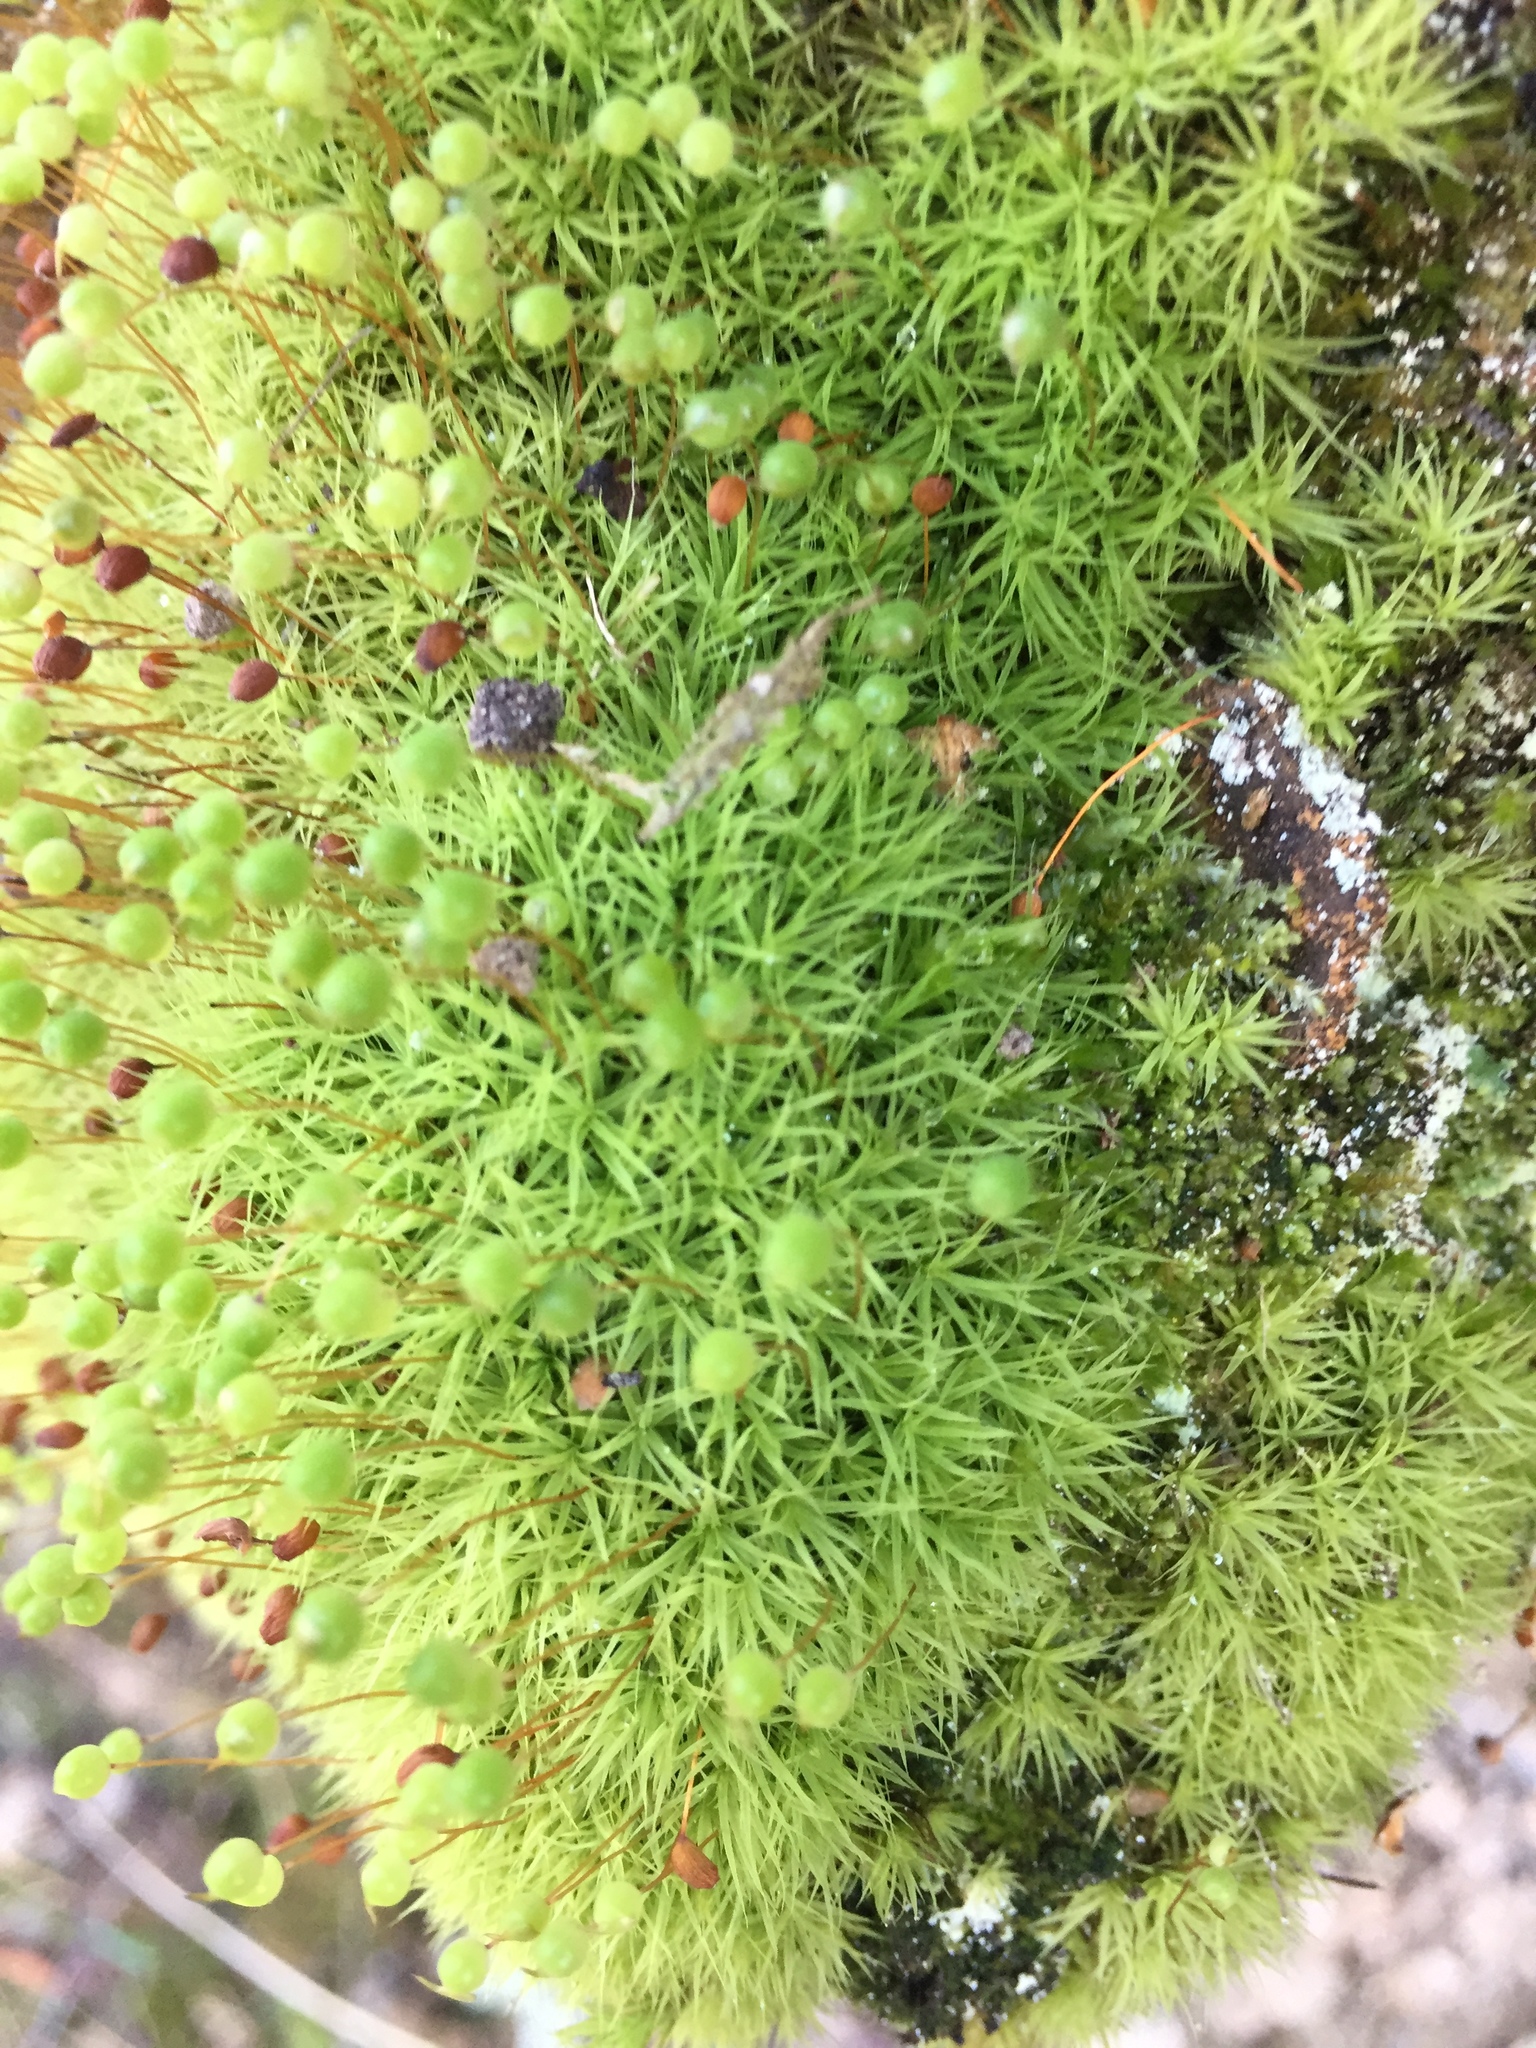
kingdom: Plantae
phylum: Bryophyta
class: Bryopsida
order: Bartramiales
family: Bartramiaceae
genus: Bartramia
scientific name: Bartramia ithyphylla
